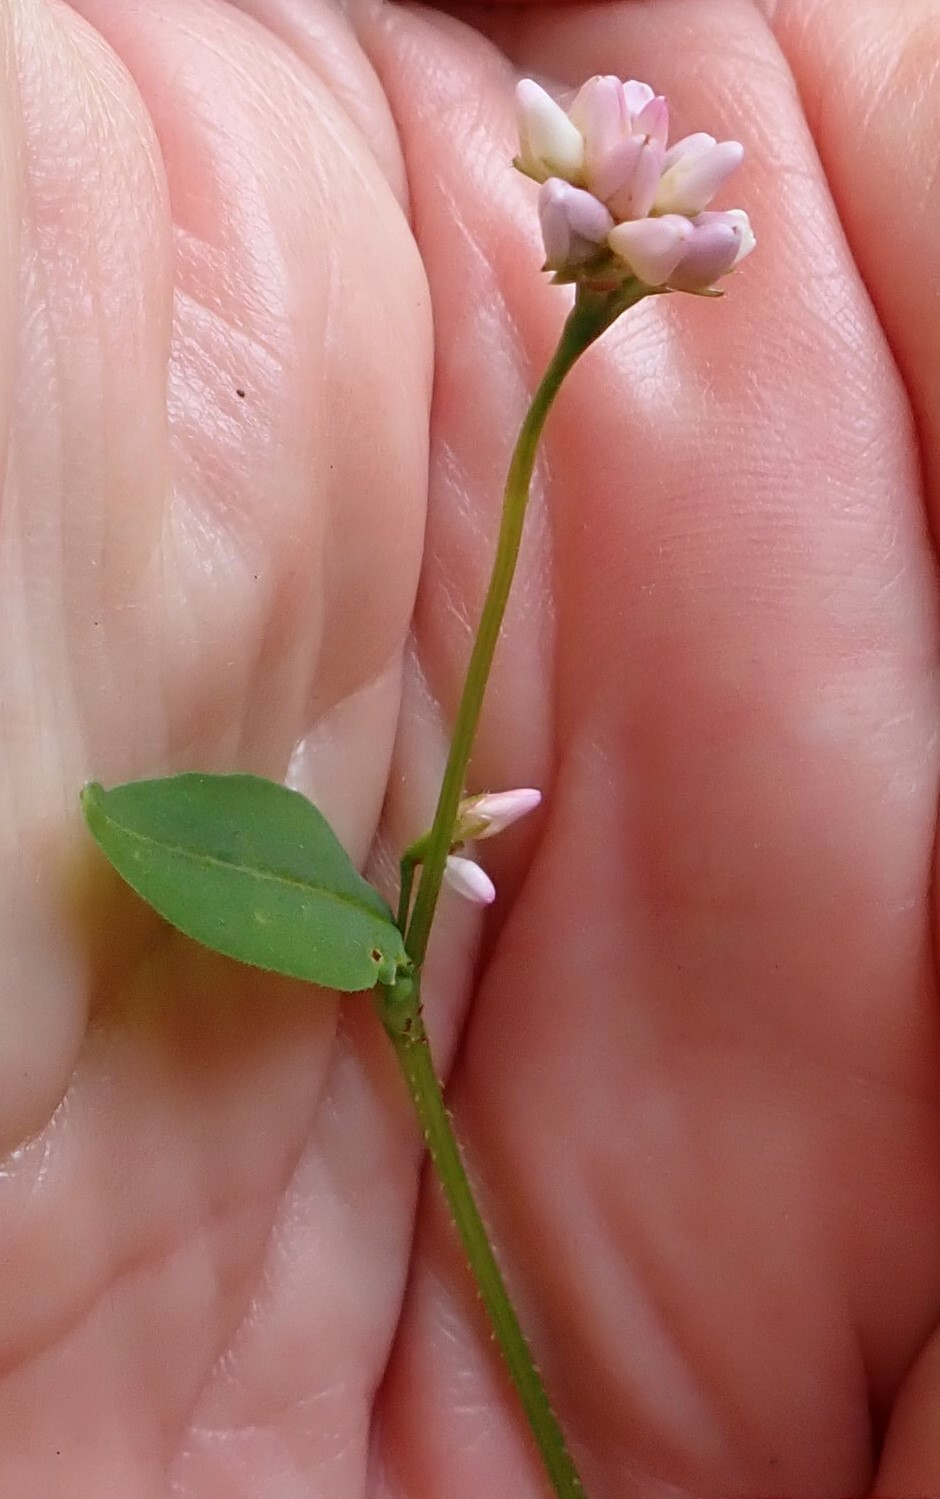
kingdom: Plantae
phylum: Tracheophyta
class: Magnoliopsida
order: Caryophyllales
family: Polygonaceae
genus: Persicaria
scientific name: Persicaria sagittata
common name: American tearthumb
